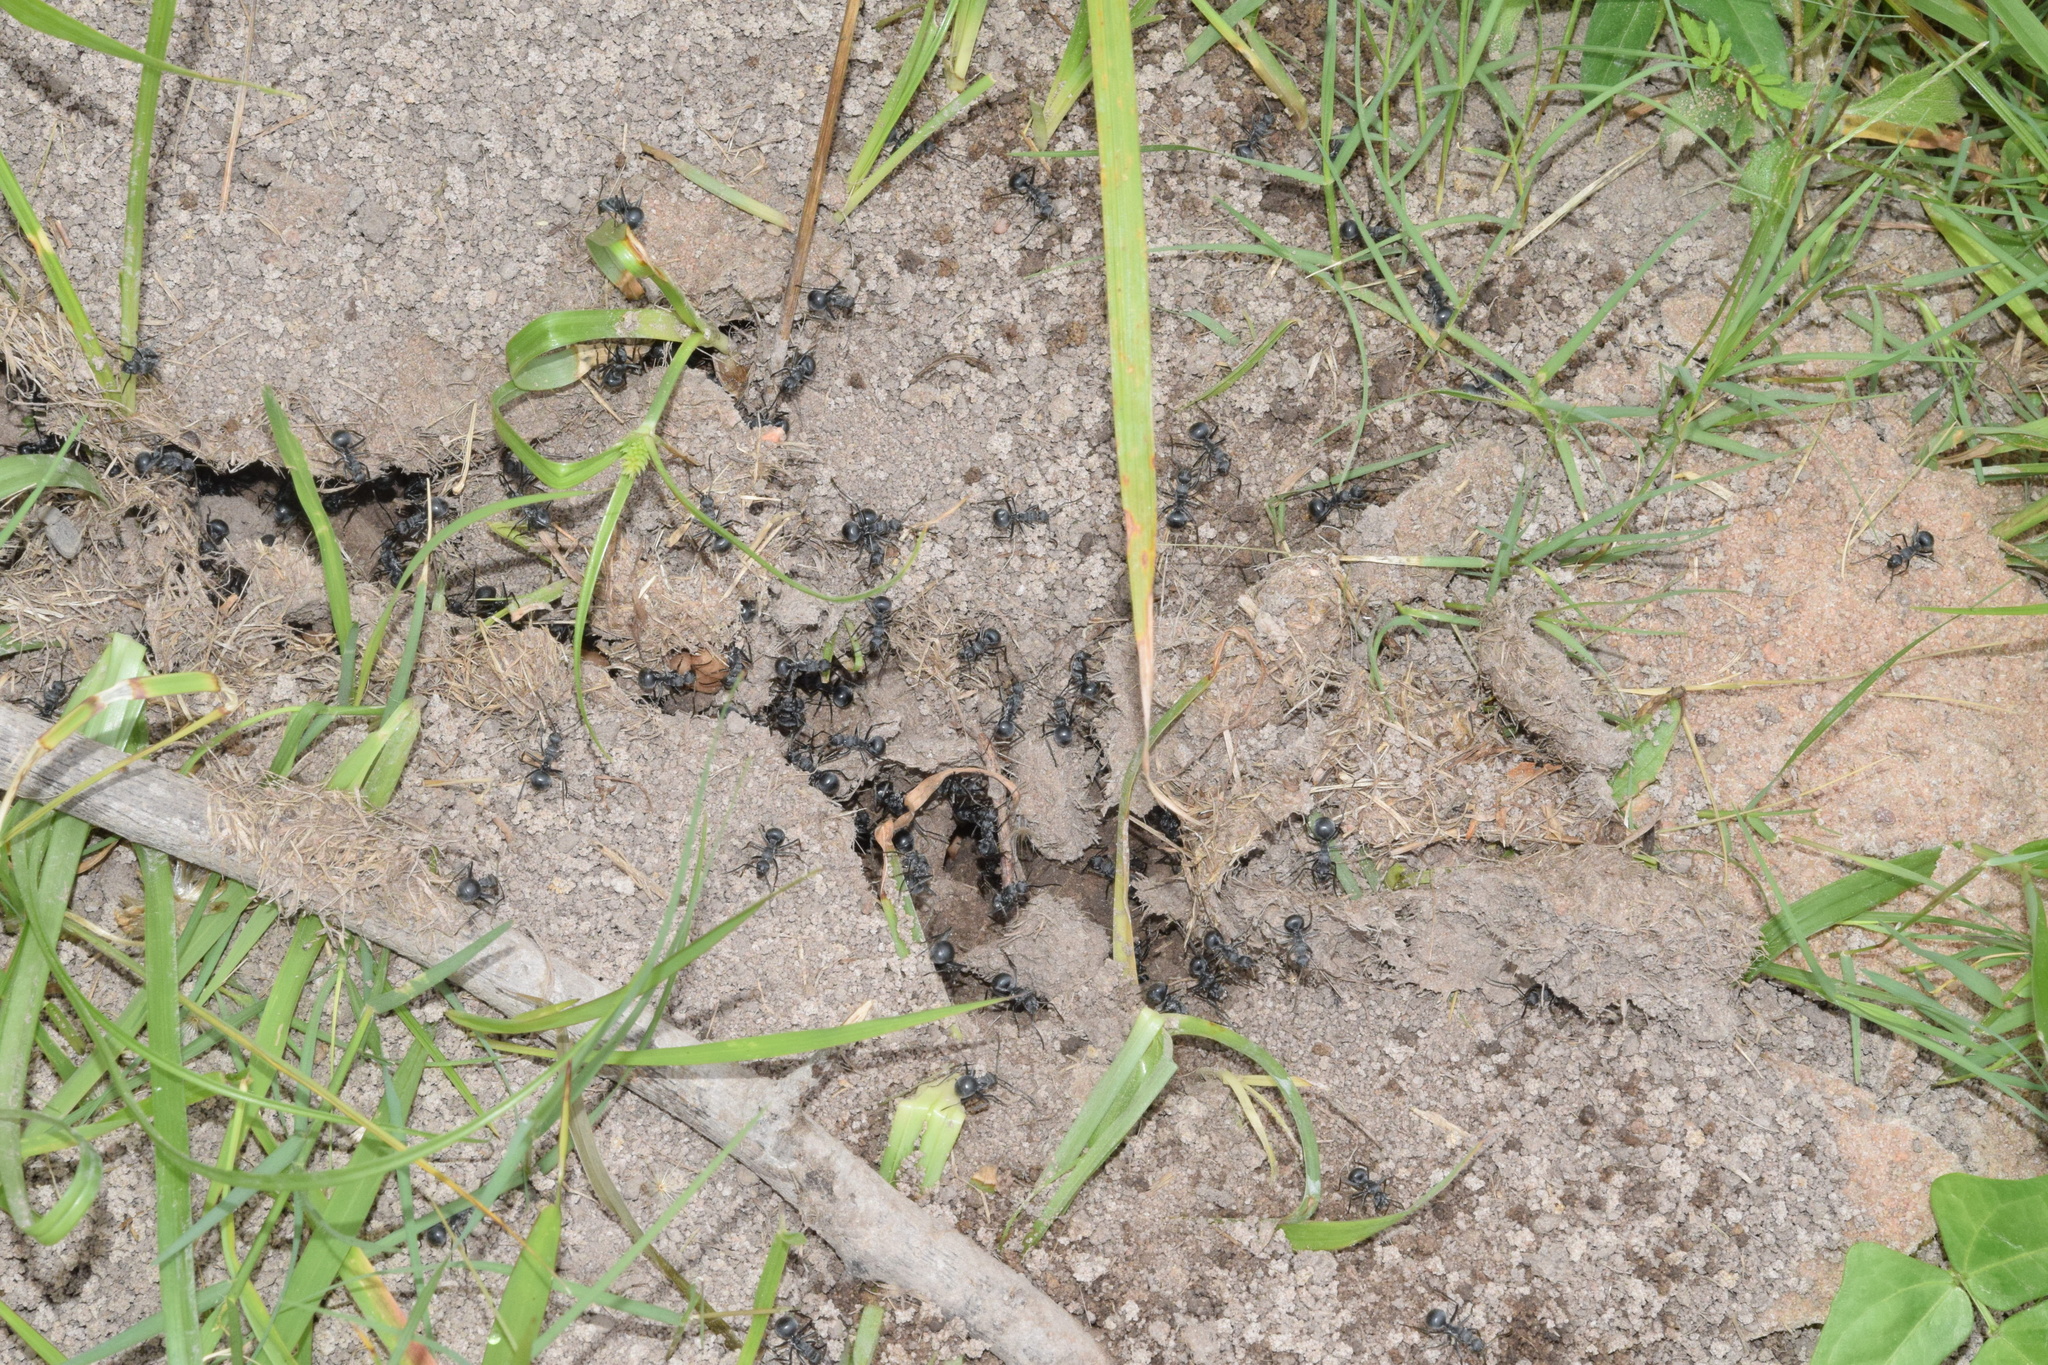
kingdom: Animalia
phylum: Arthropoda
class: Insecta
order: Hymenoptera
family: Formicidae
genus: Myrmicaria
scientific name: Myrmicaria natalensis
